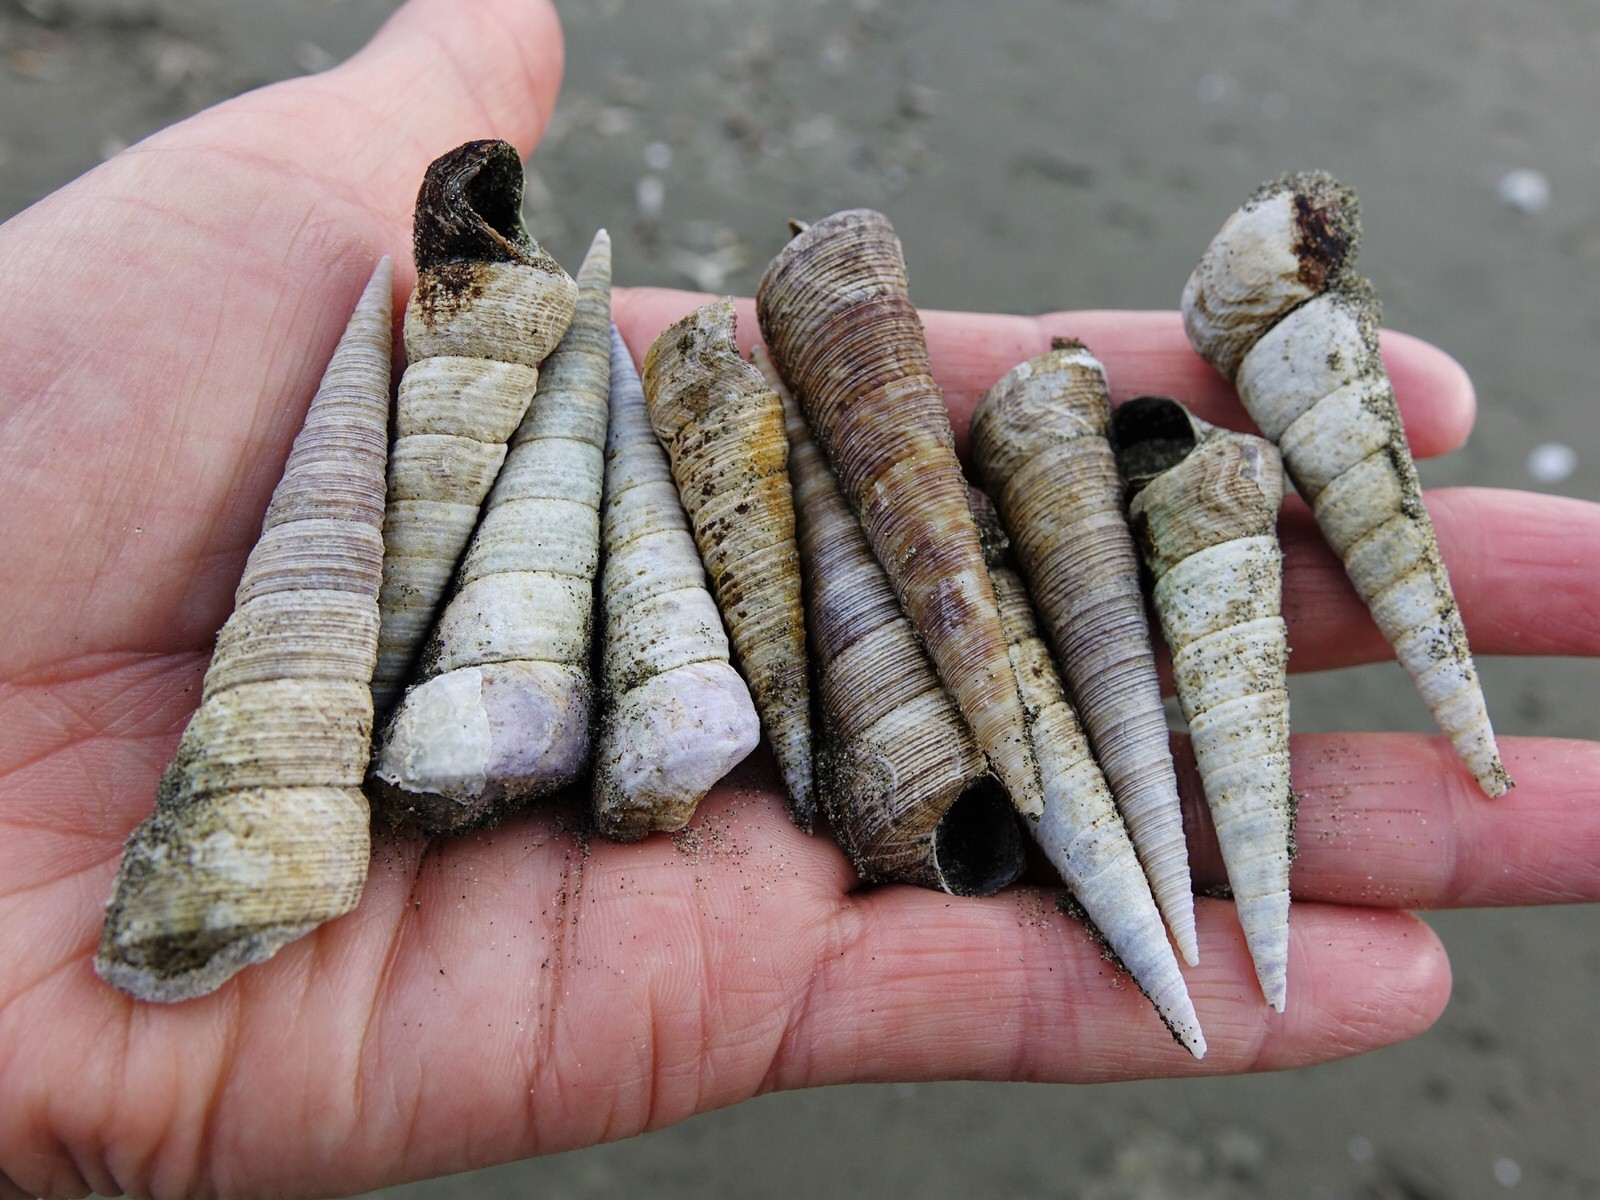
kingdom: Animalia
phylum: Mollusca
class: Gastropoda
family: Turritellidae
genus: Maoricolpus
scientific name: Maoricolpus roseus
